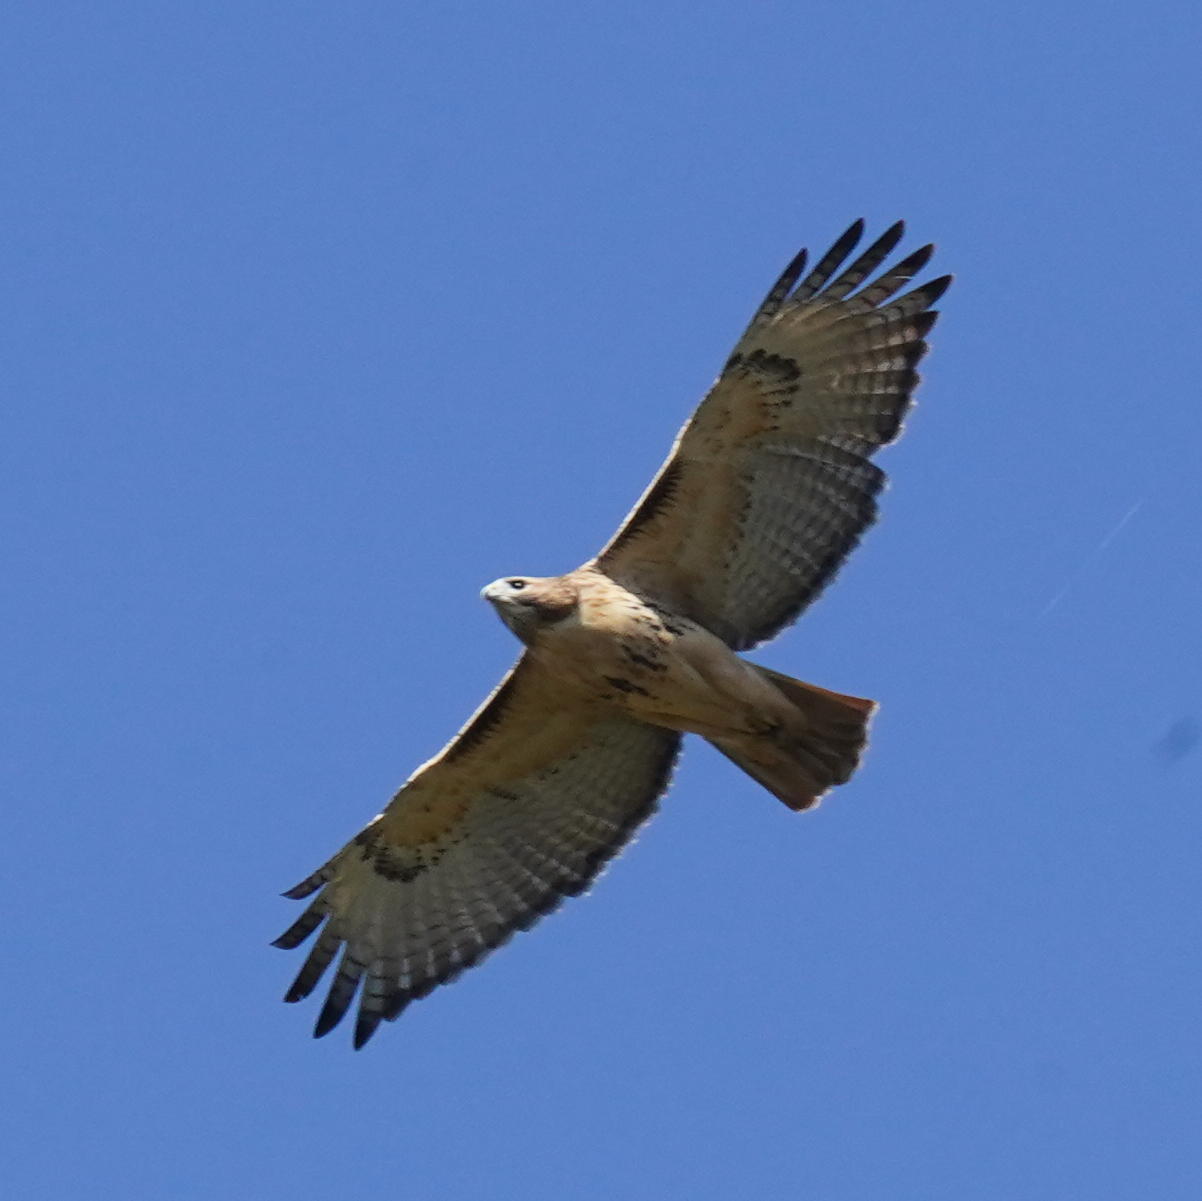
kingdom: Animalia
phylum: Chordata
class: Aves
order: Accipitriformes
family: Accipitridae
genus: Buteo
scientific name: Buteo jamaicensis
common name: Red-tailed hawk
